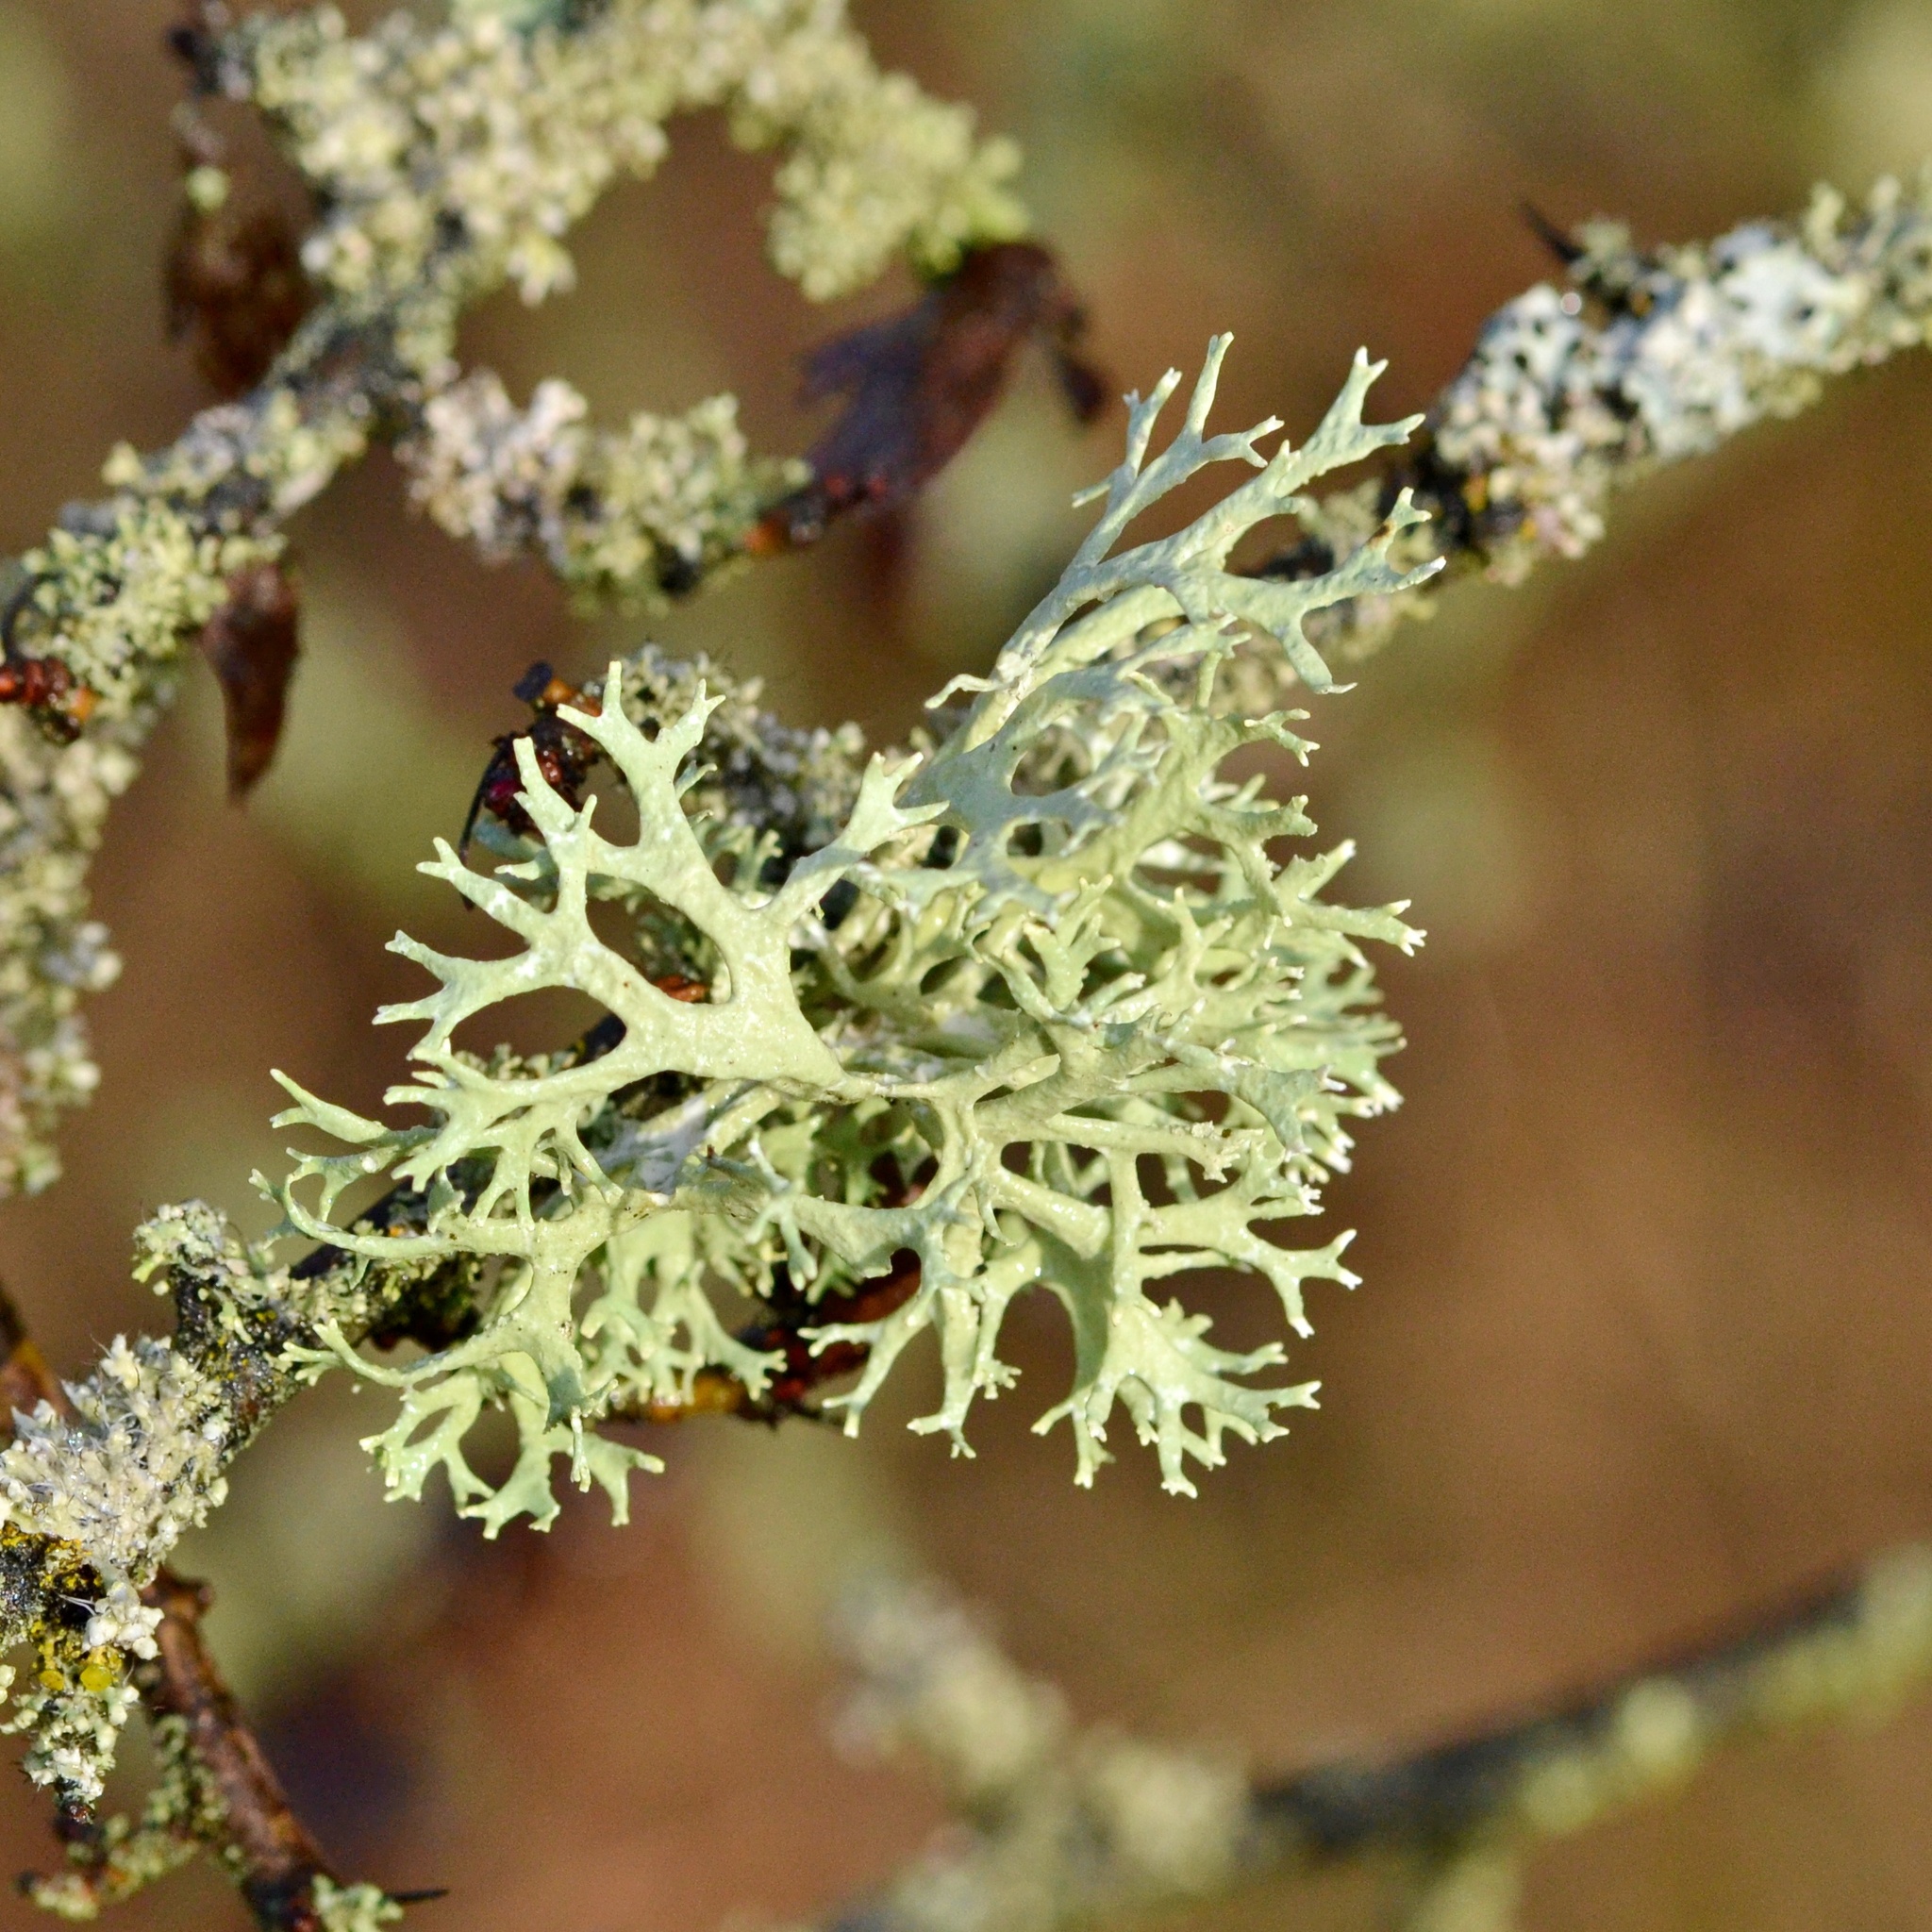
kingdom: Fungi
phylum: Ascomycota
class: Lecanoromycetes
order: Lecanorales
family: Parmeliaceae
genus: Evernia
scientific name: Evernia prunastri
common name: Oak moss
